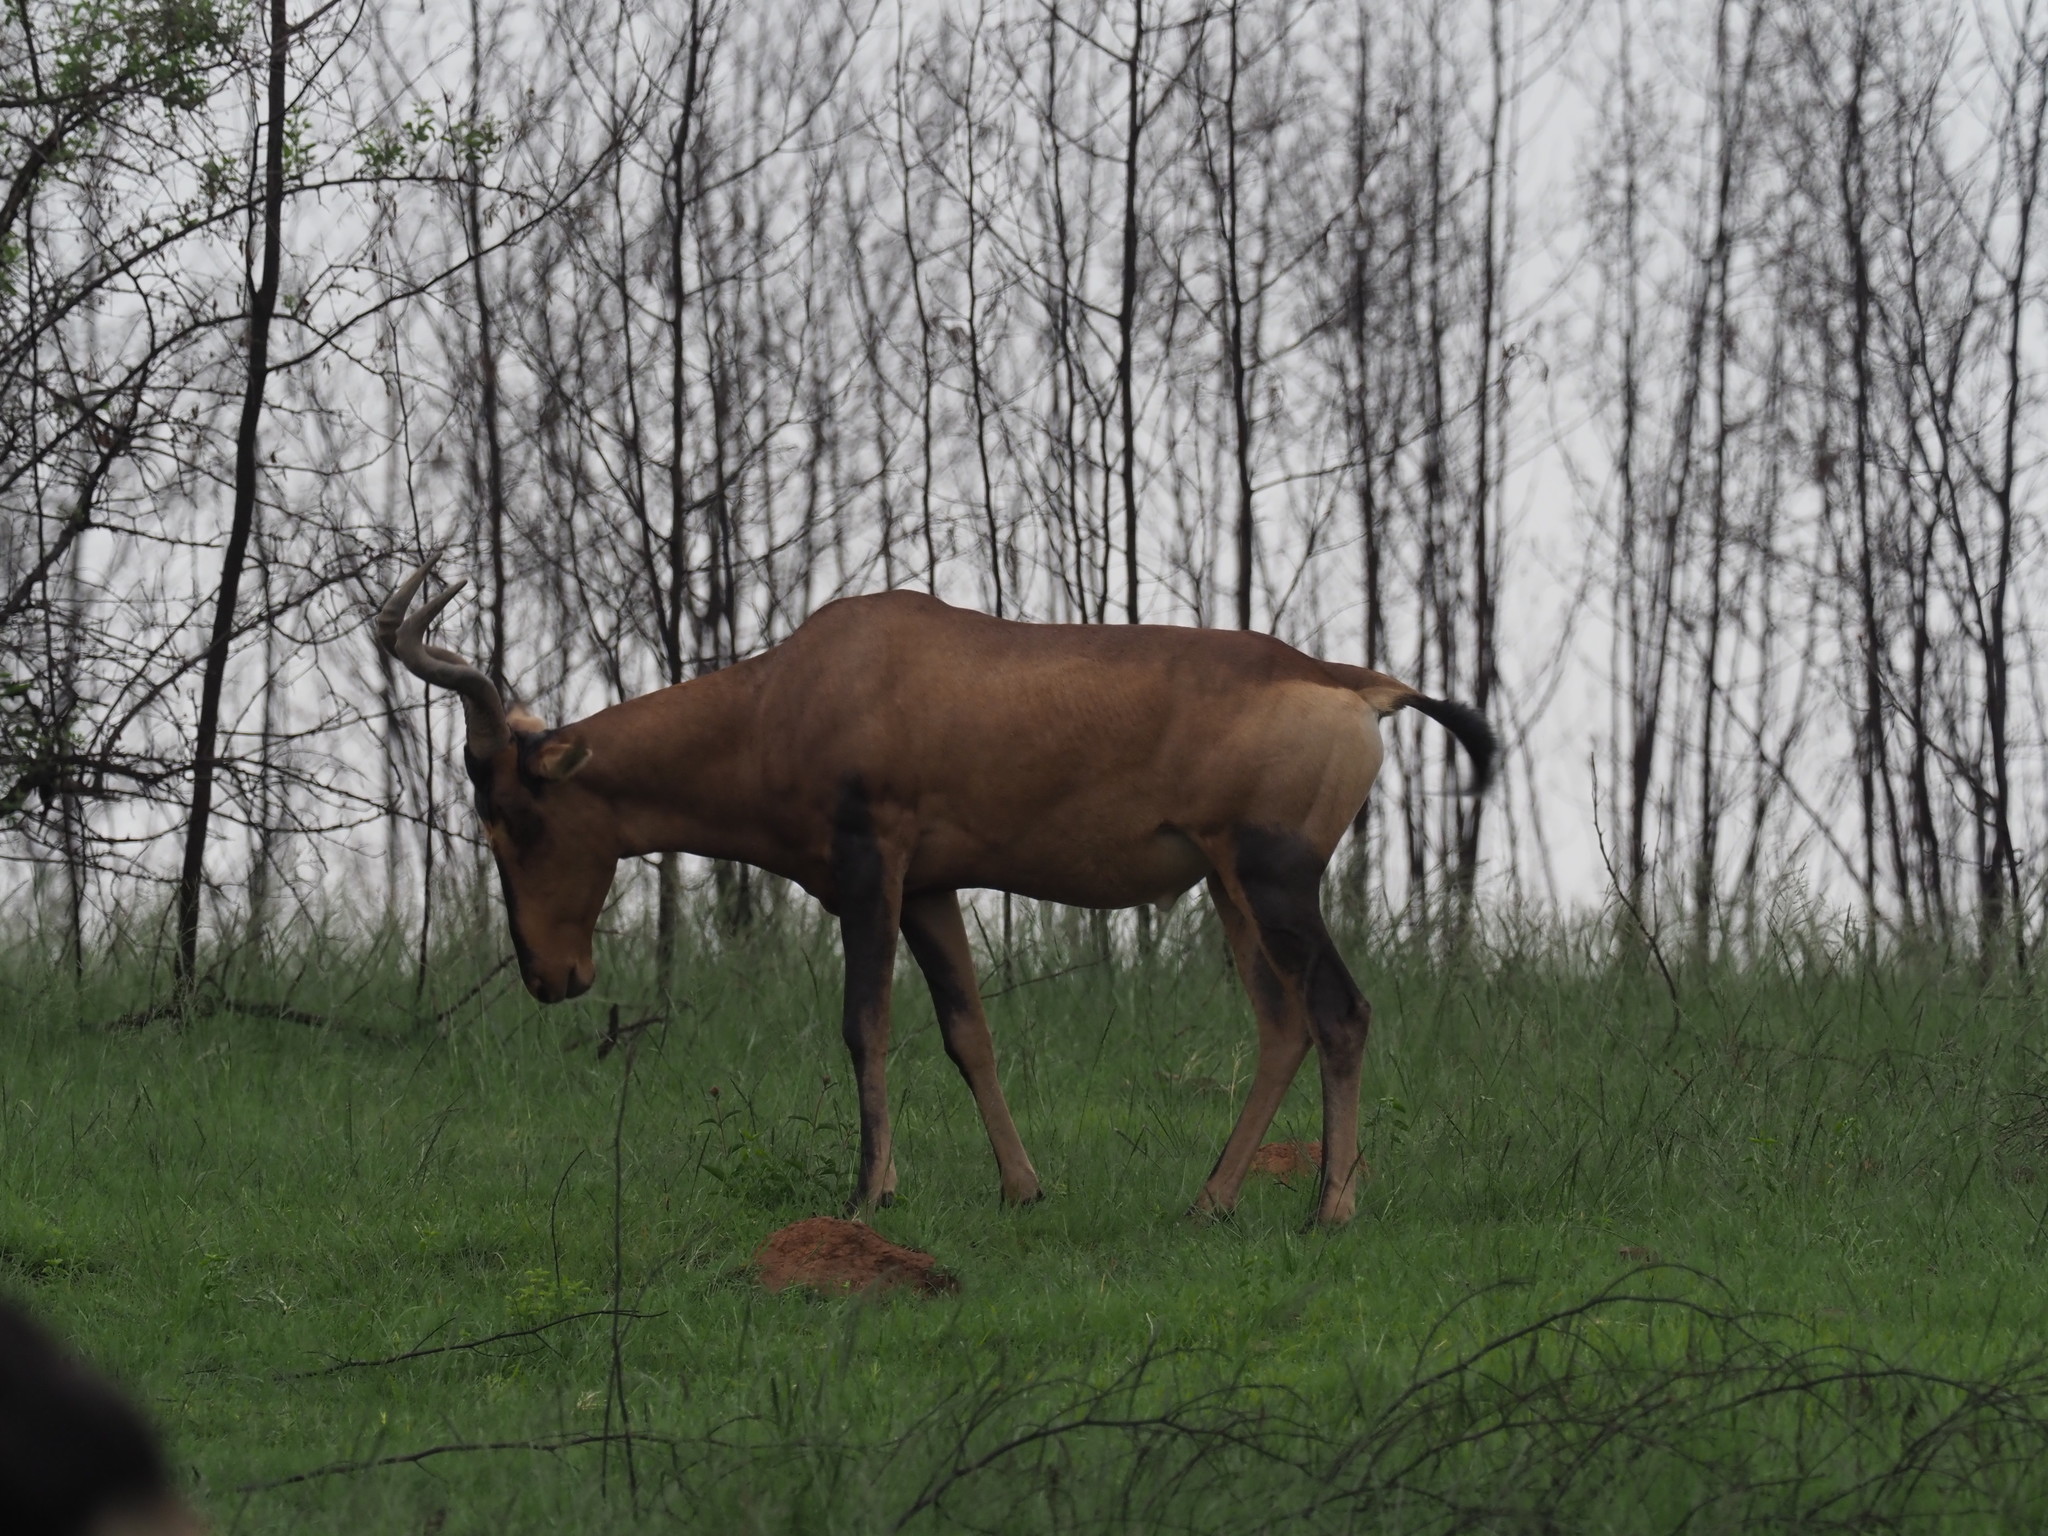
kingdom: Animalia
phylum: Chordata
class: Mammalia
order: Artiodactyla
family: Bovidae
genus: Alcelaphus
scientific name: Alcelaphus caama
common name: Red hartebeest
